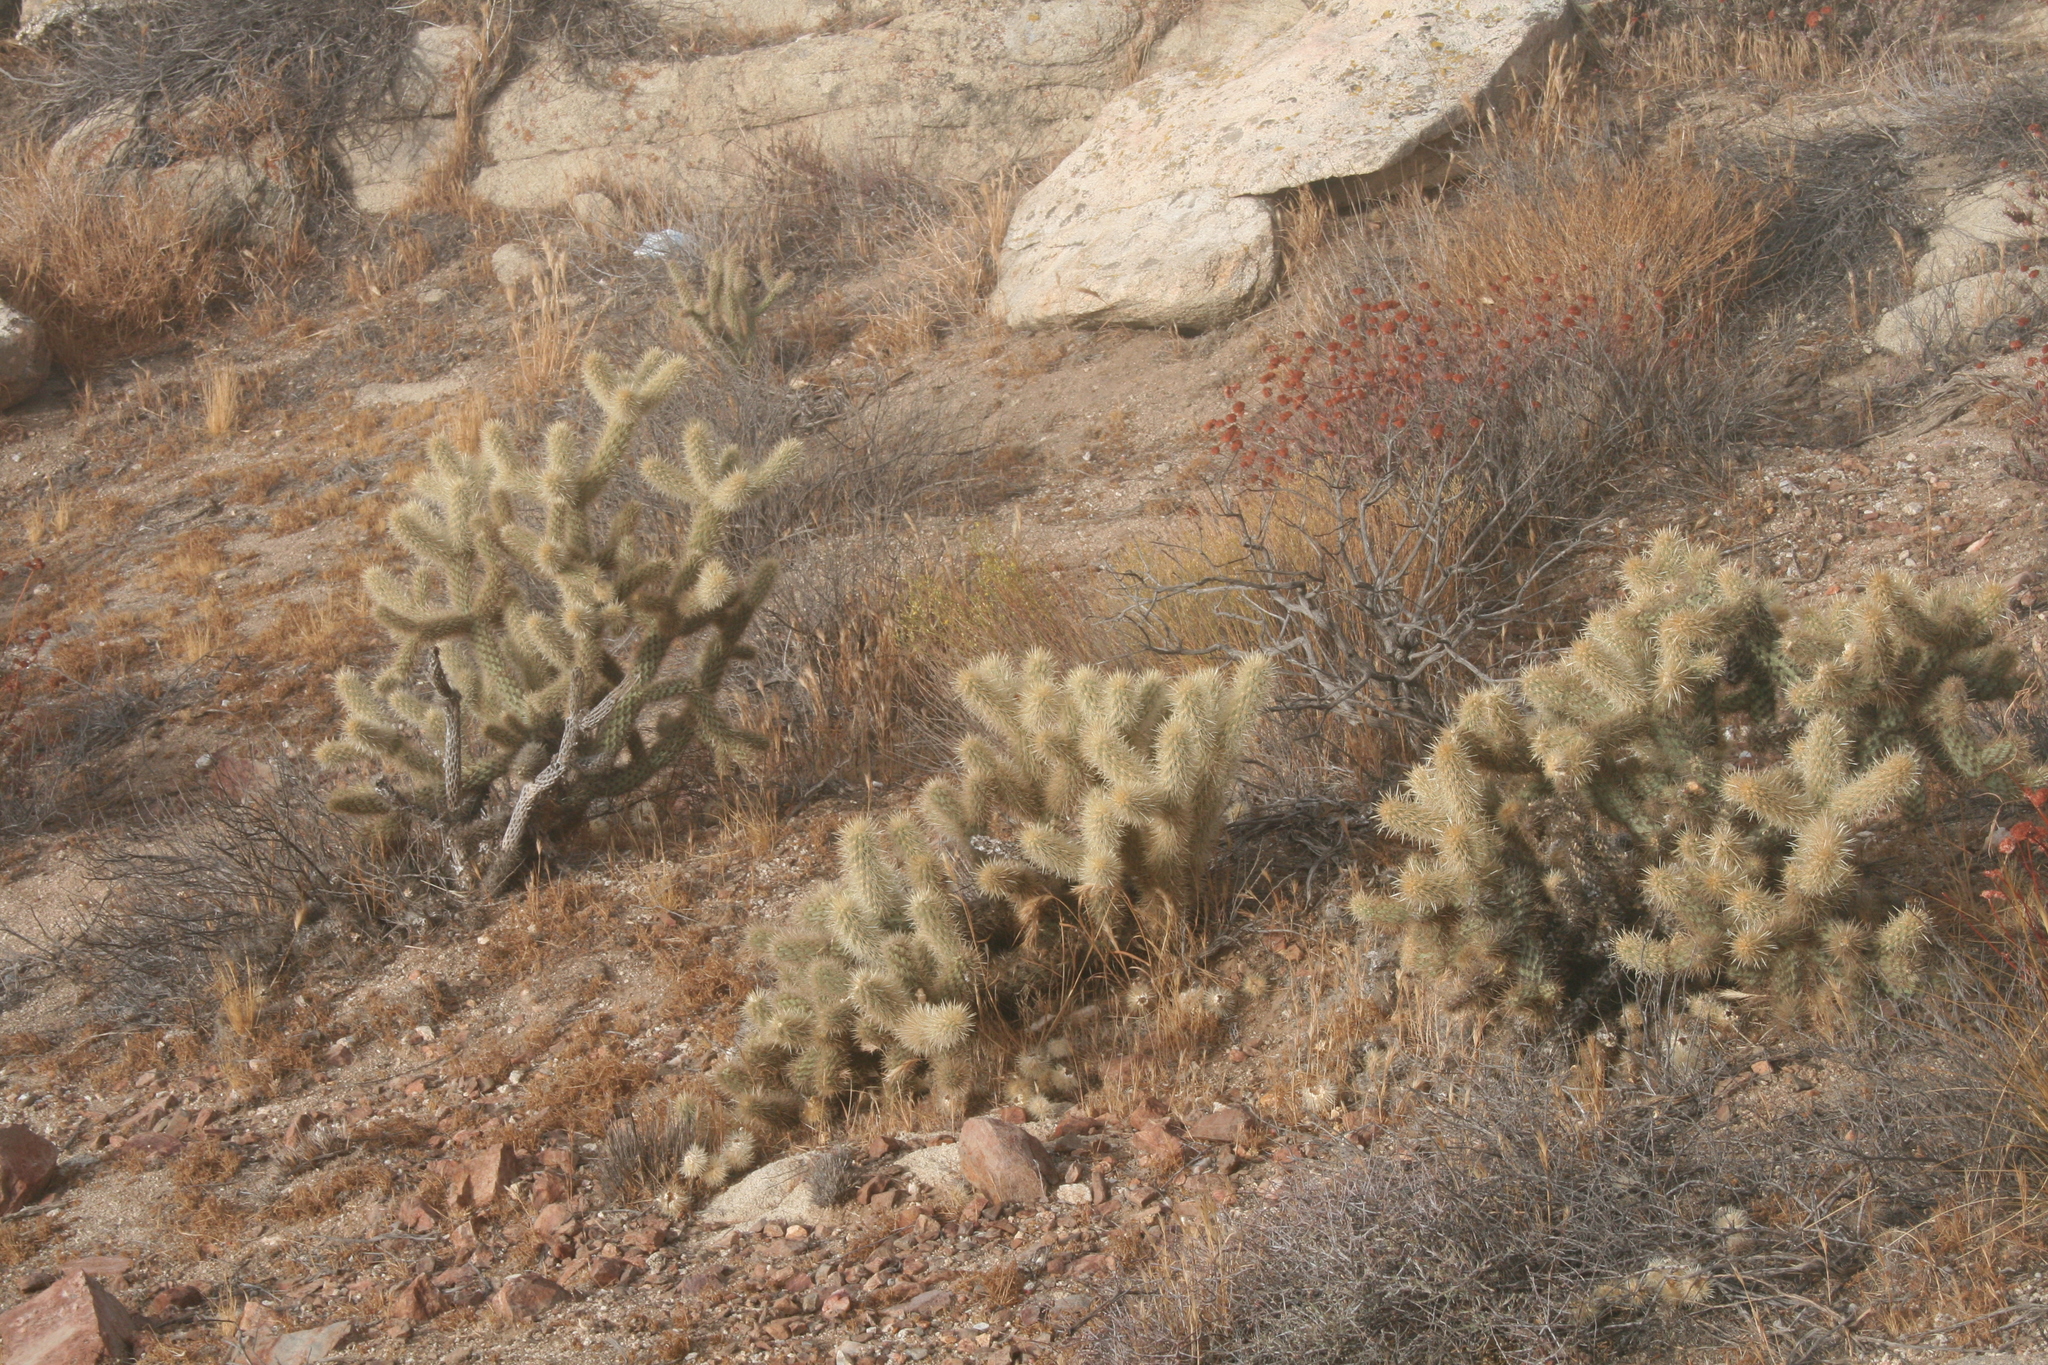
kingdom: Plantae
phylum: Tracheophyta
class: Magnoliopsida
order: Caryophyllales
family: Cactaceae
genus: Cylindropuntia
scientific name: Cylindropuntia wolfii
